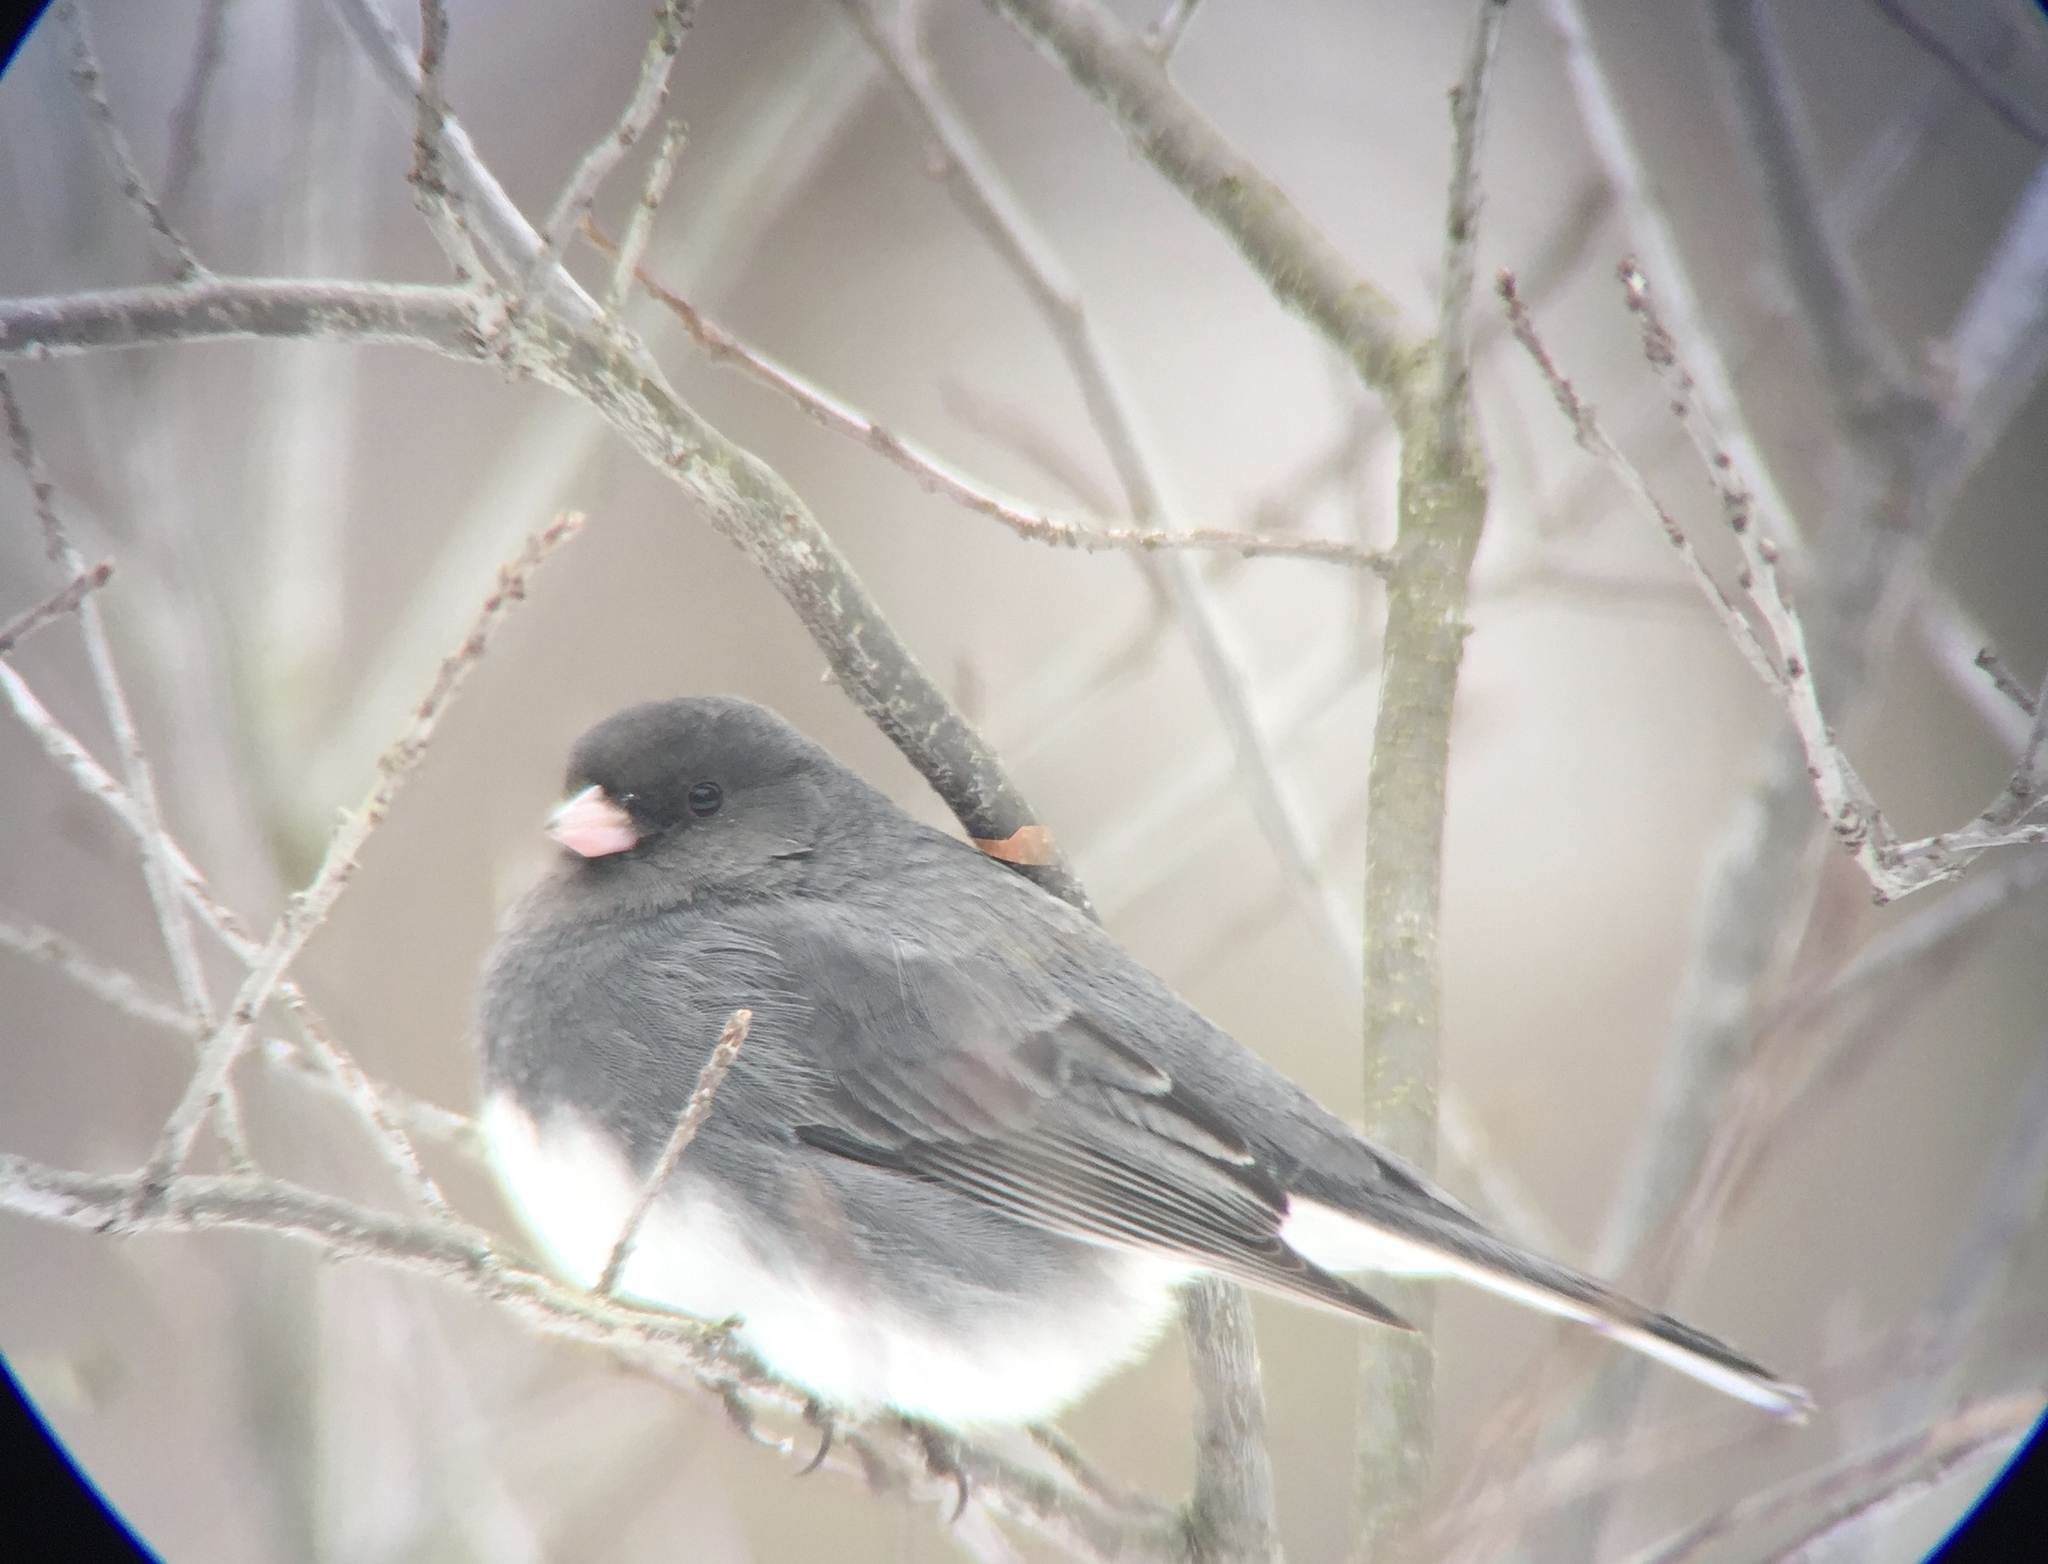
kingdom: Animalia
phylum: Chordata
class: Aves
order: Passeriformes
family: Passerellidae
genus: Junco
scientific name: Junco hyemalis
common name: Dark-eyed junco
